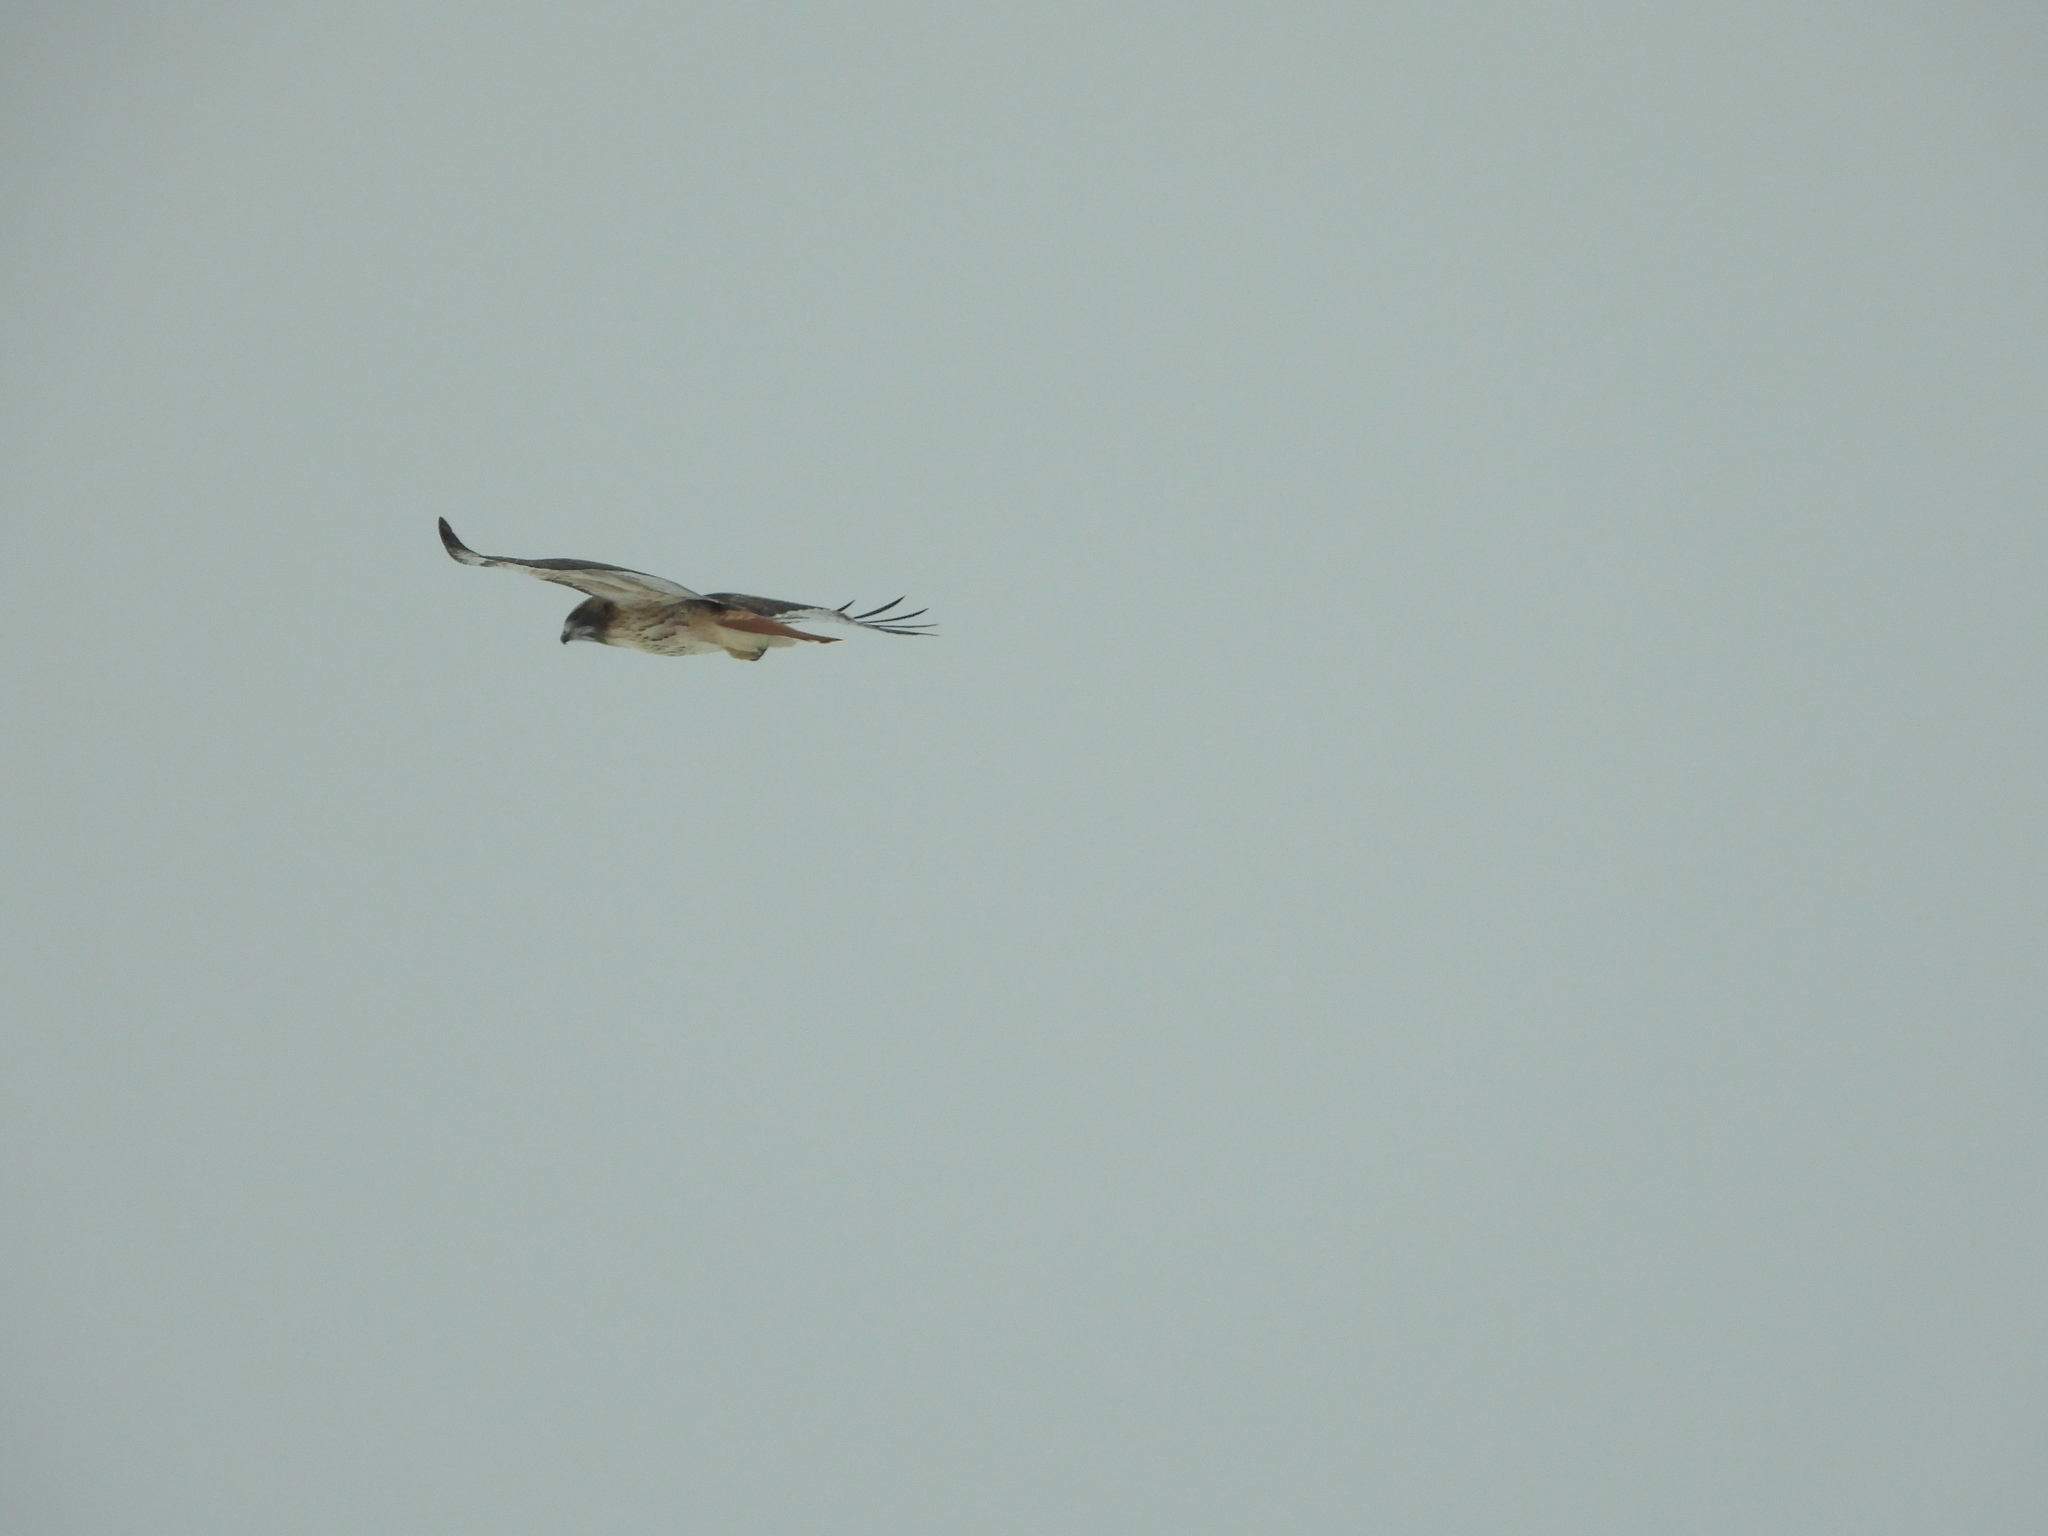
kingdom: Animalia
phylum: Chordata
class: Aves
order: Accipitriformes
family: Accipitridae
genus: Buteo
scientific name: Buteo jamaicensis
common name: Red-tailed hawk
